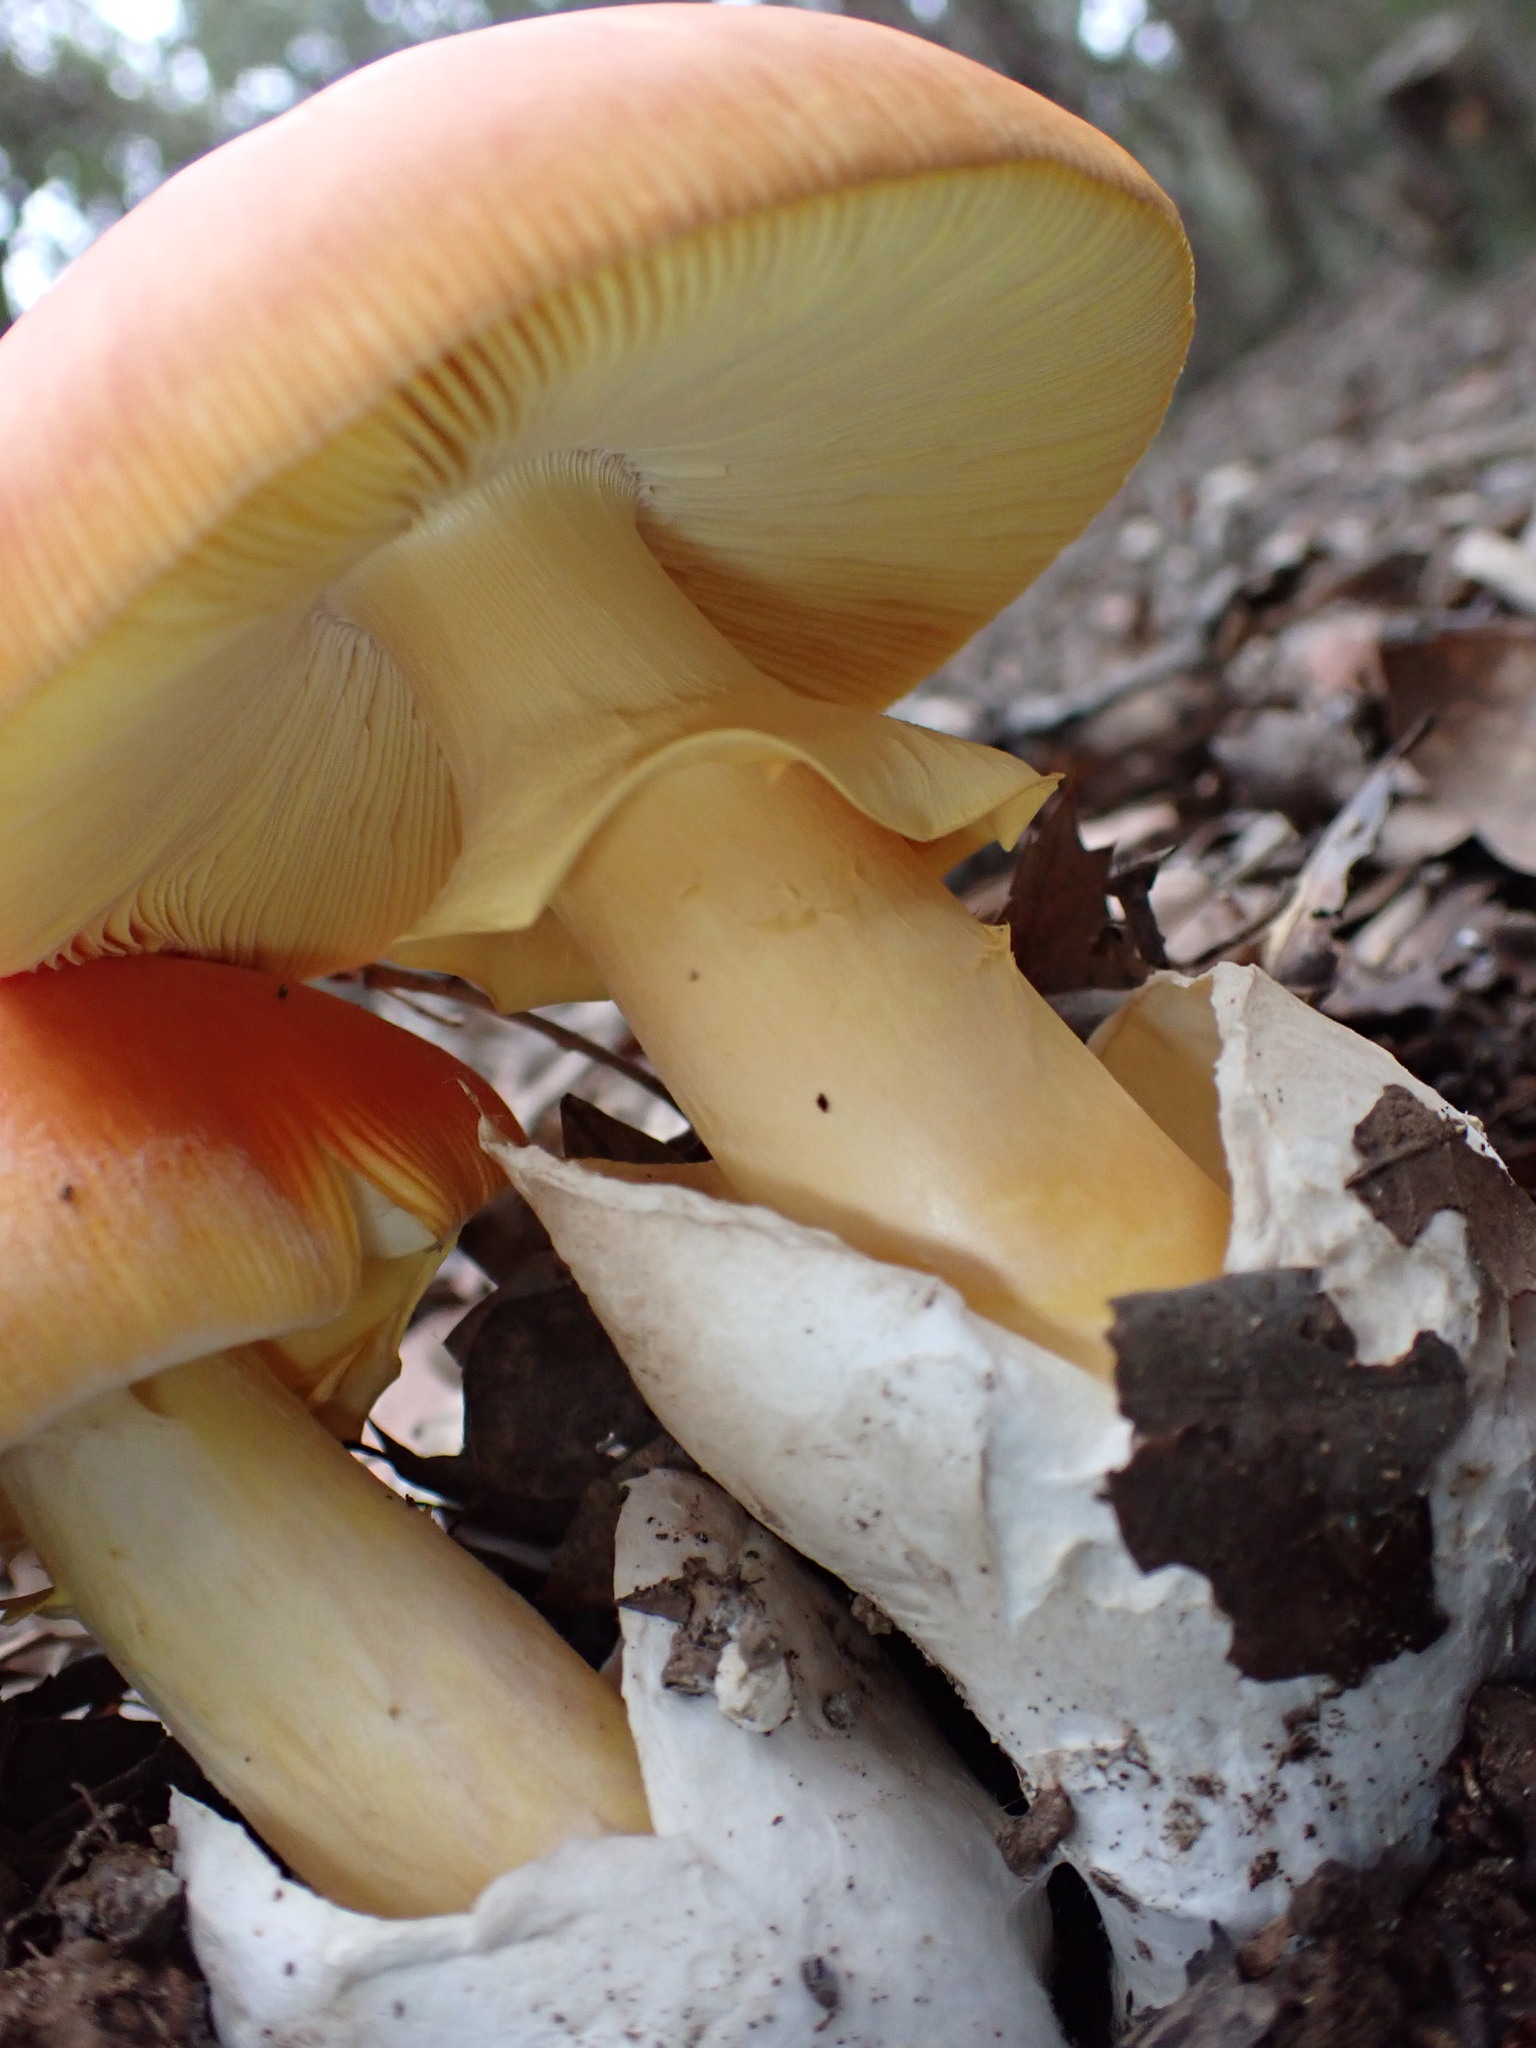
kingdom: Fungi
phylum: Basidiomycota
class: Agaricomycetes
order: Agaricales
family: Amanitaceae
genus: Amanita
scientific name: Amanita caesarea
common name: Caesar's amanita
